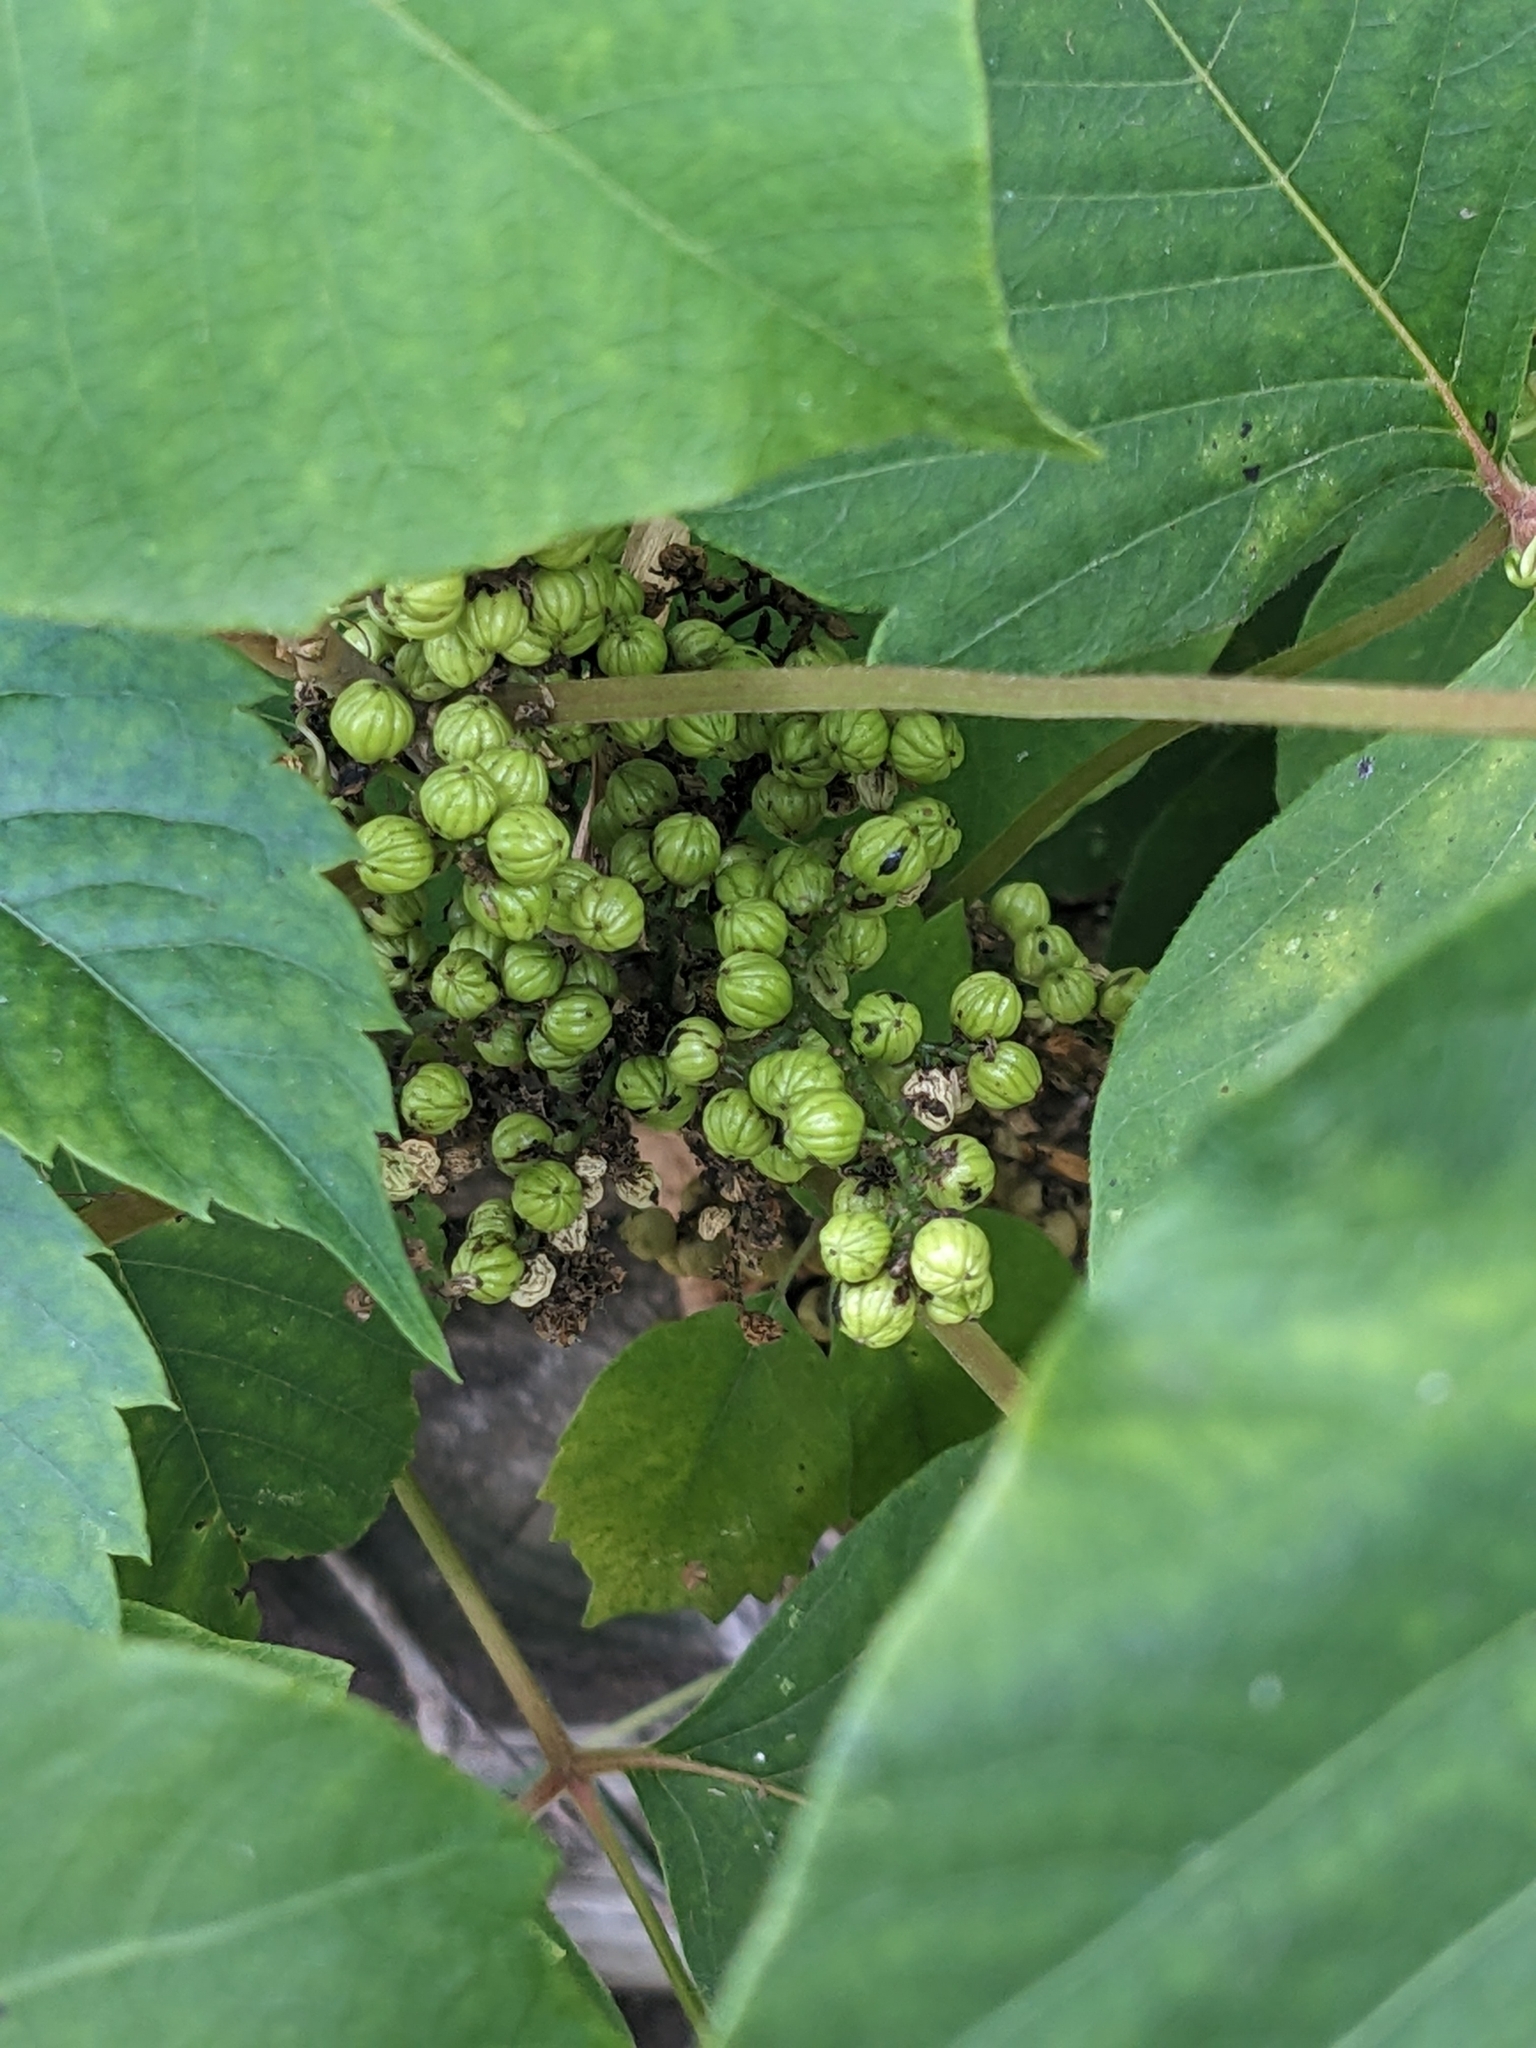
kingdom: Plantae
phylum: Tracheophyta
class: Magnoliopsida
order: Sapindales
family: Anacardiaceae
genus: Toxicodendron
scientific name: Toxicodendron rydbergii
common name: Rydberg's poison-ivy
